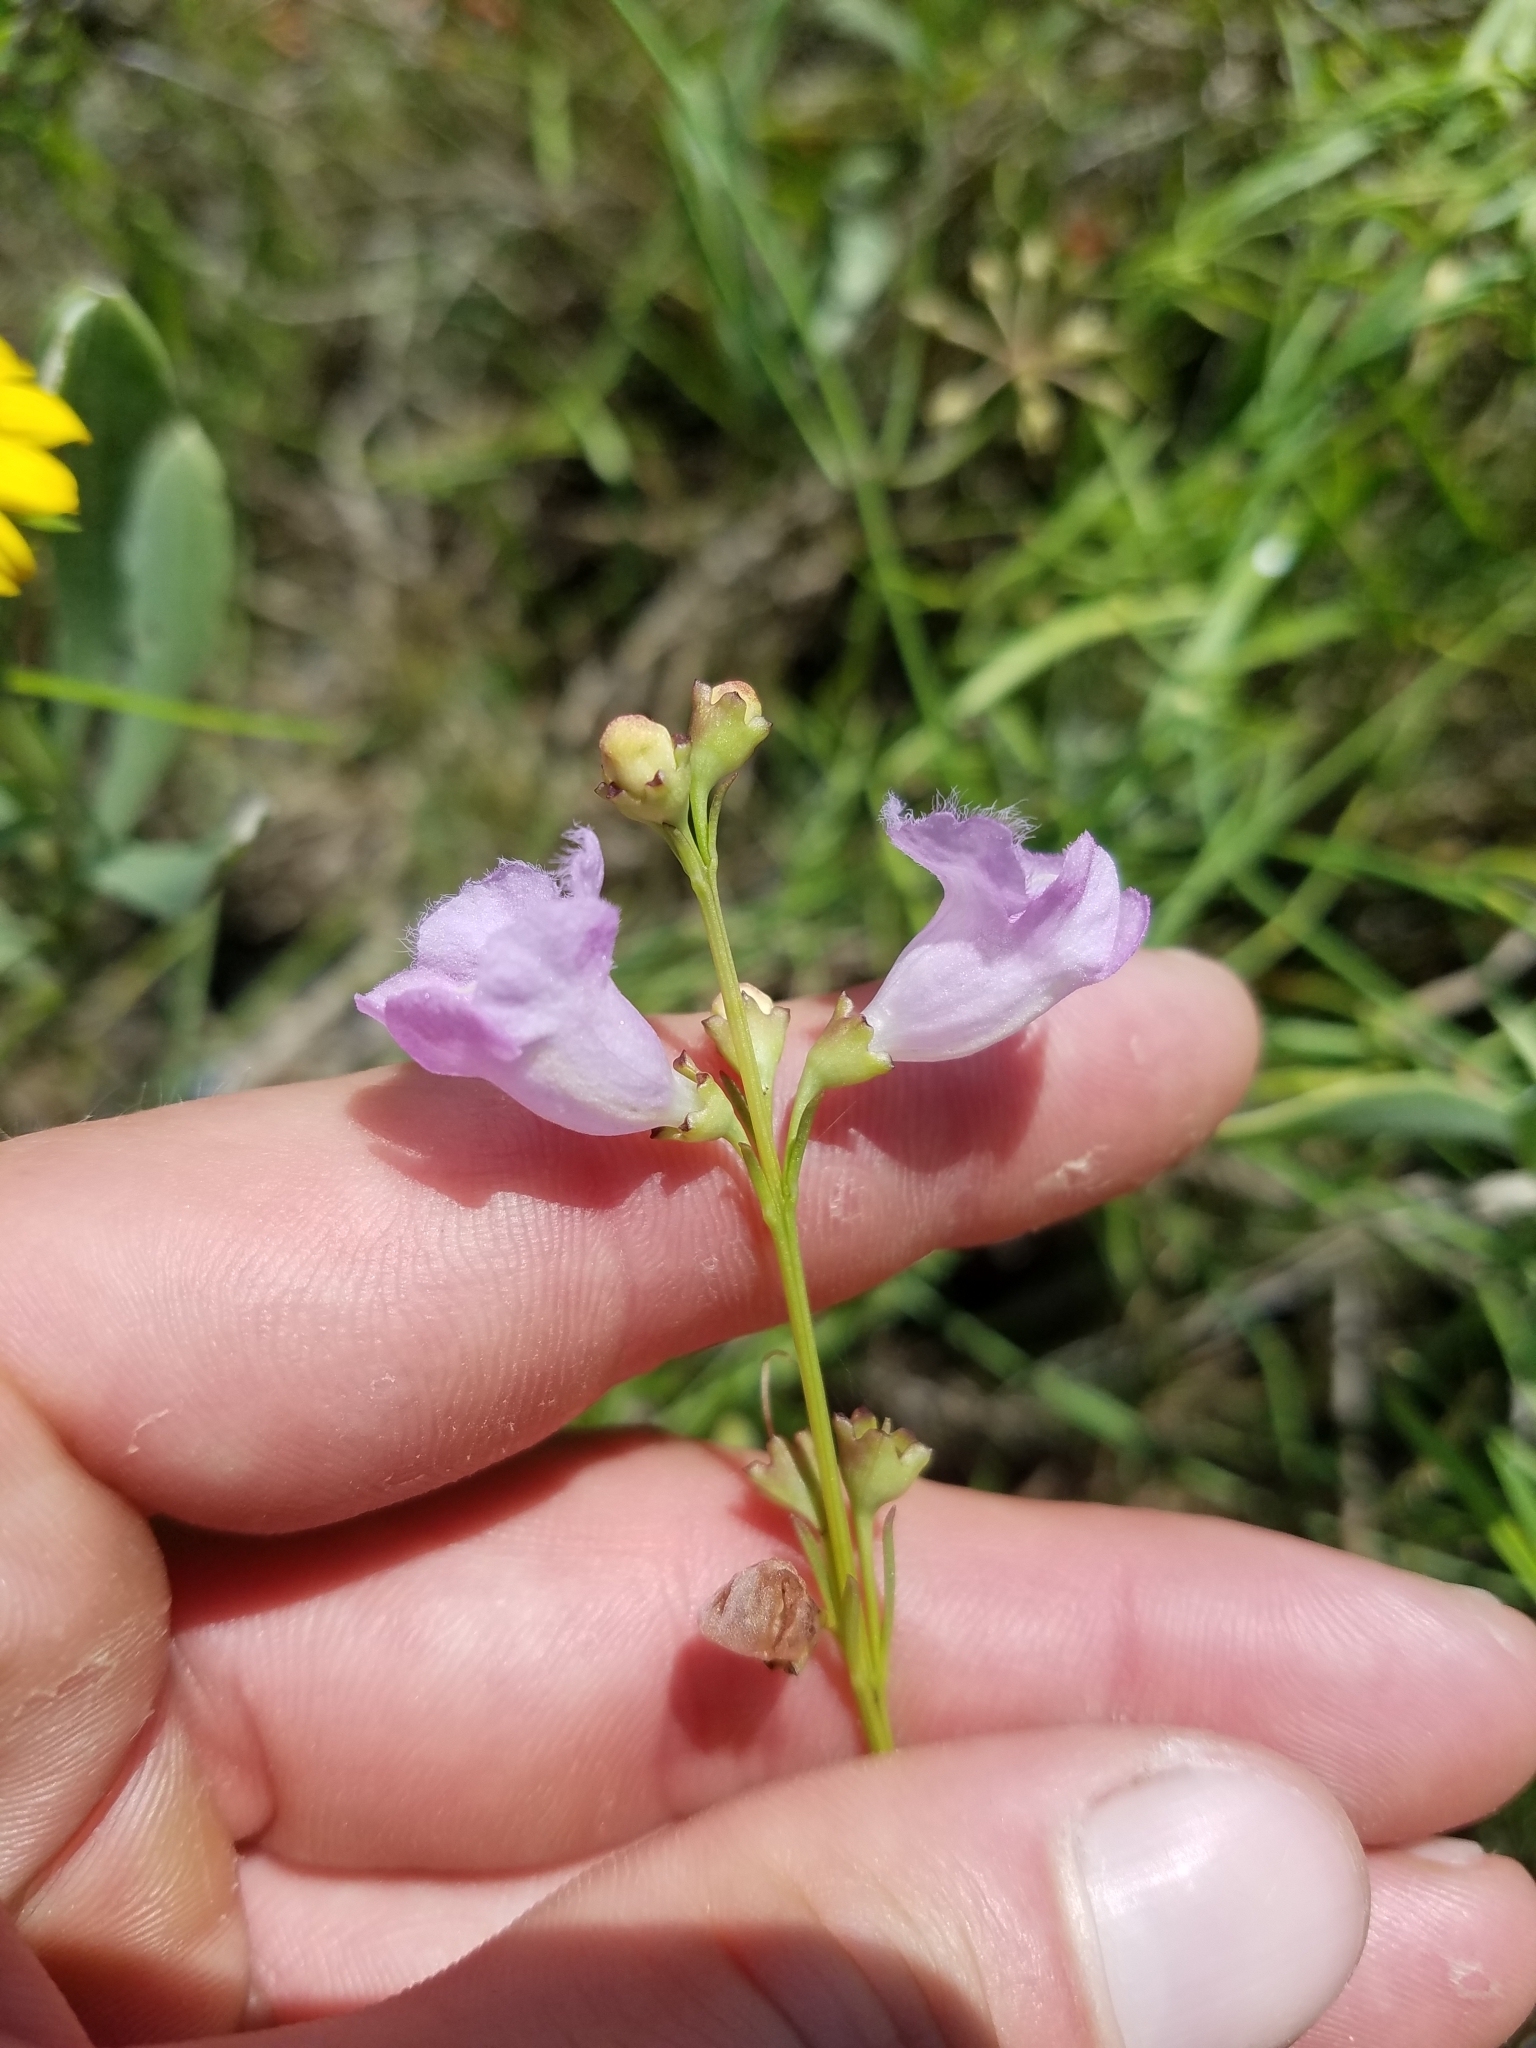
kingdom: Plantae
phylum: Tracheophyta
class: Magnoliopsida
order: Lamiales
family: Orobanchaceae
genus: Agalinis
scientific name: Agalinis maritima
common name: Saltmarsh agalinis
